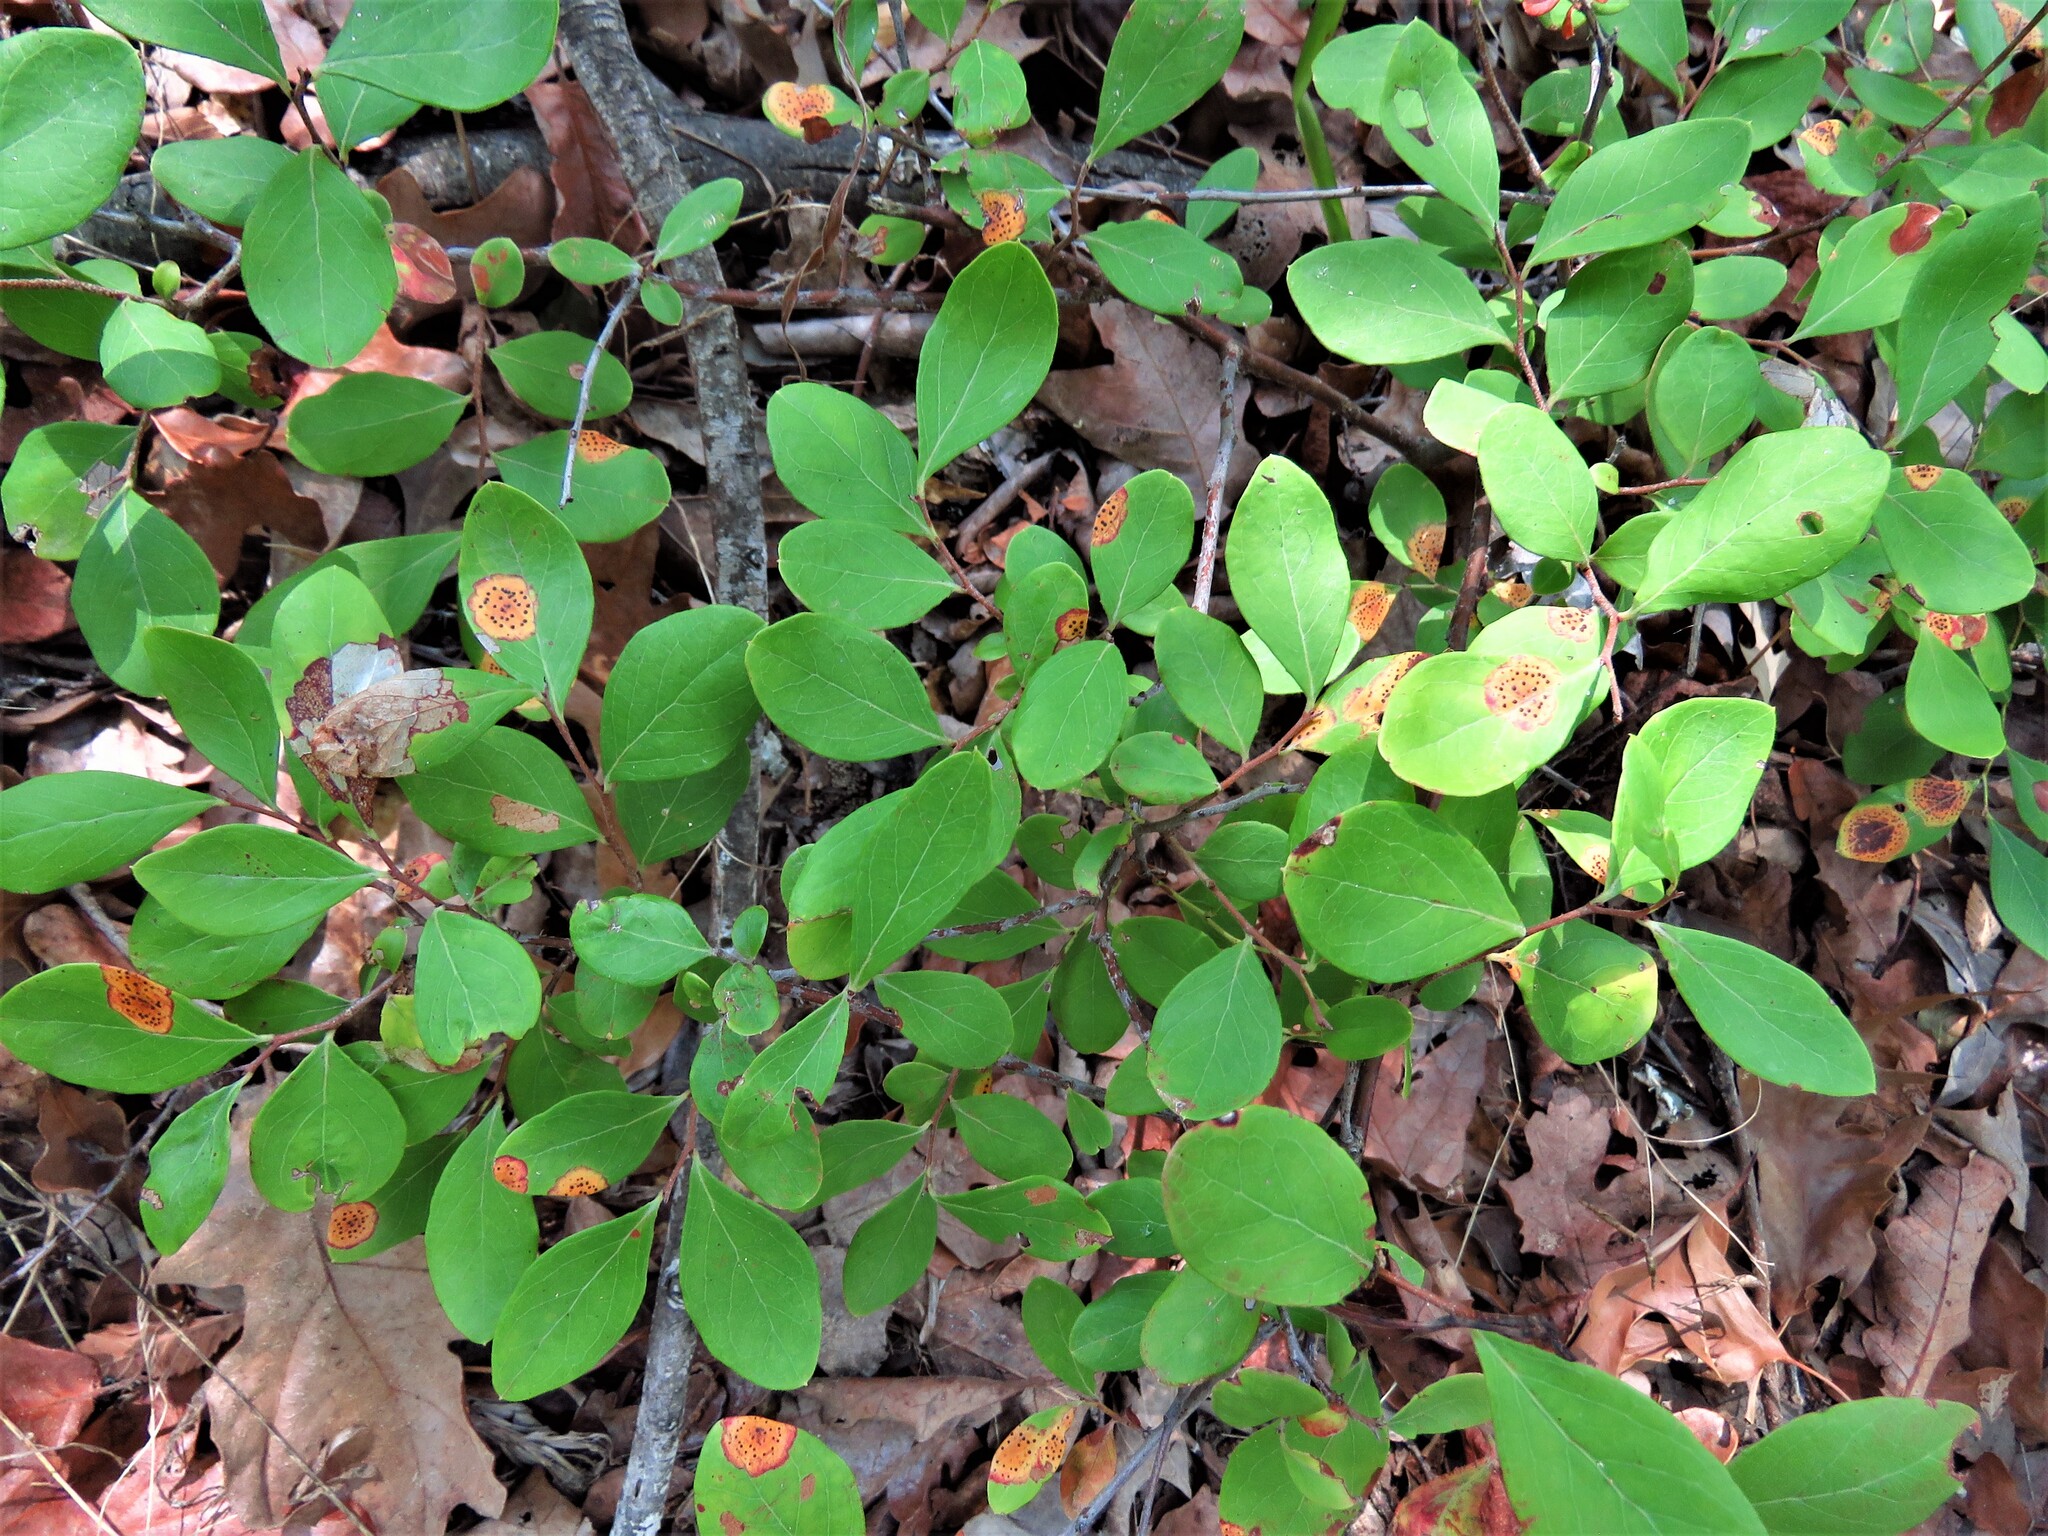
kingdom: Plantae
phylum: Tracheophyta
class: Magnoliopsida
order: Ericales
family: Ericaceae
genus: Vaccinium
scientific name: Vaccinium arboreum
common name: Farkleberry
